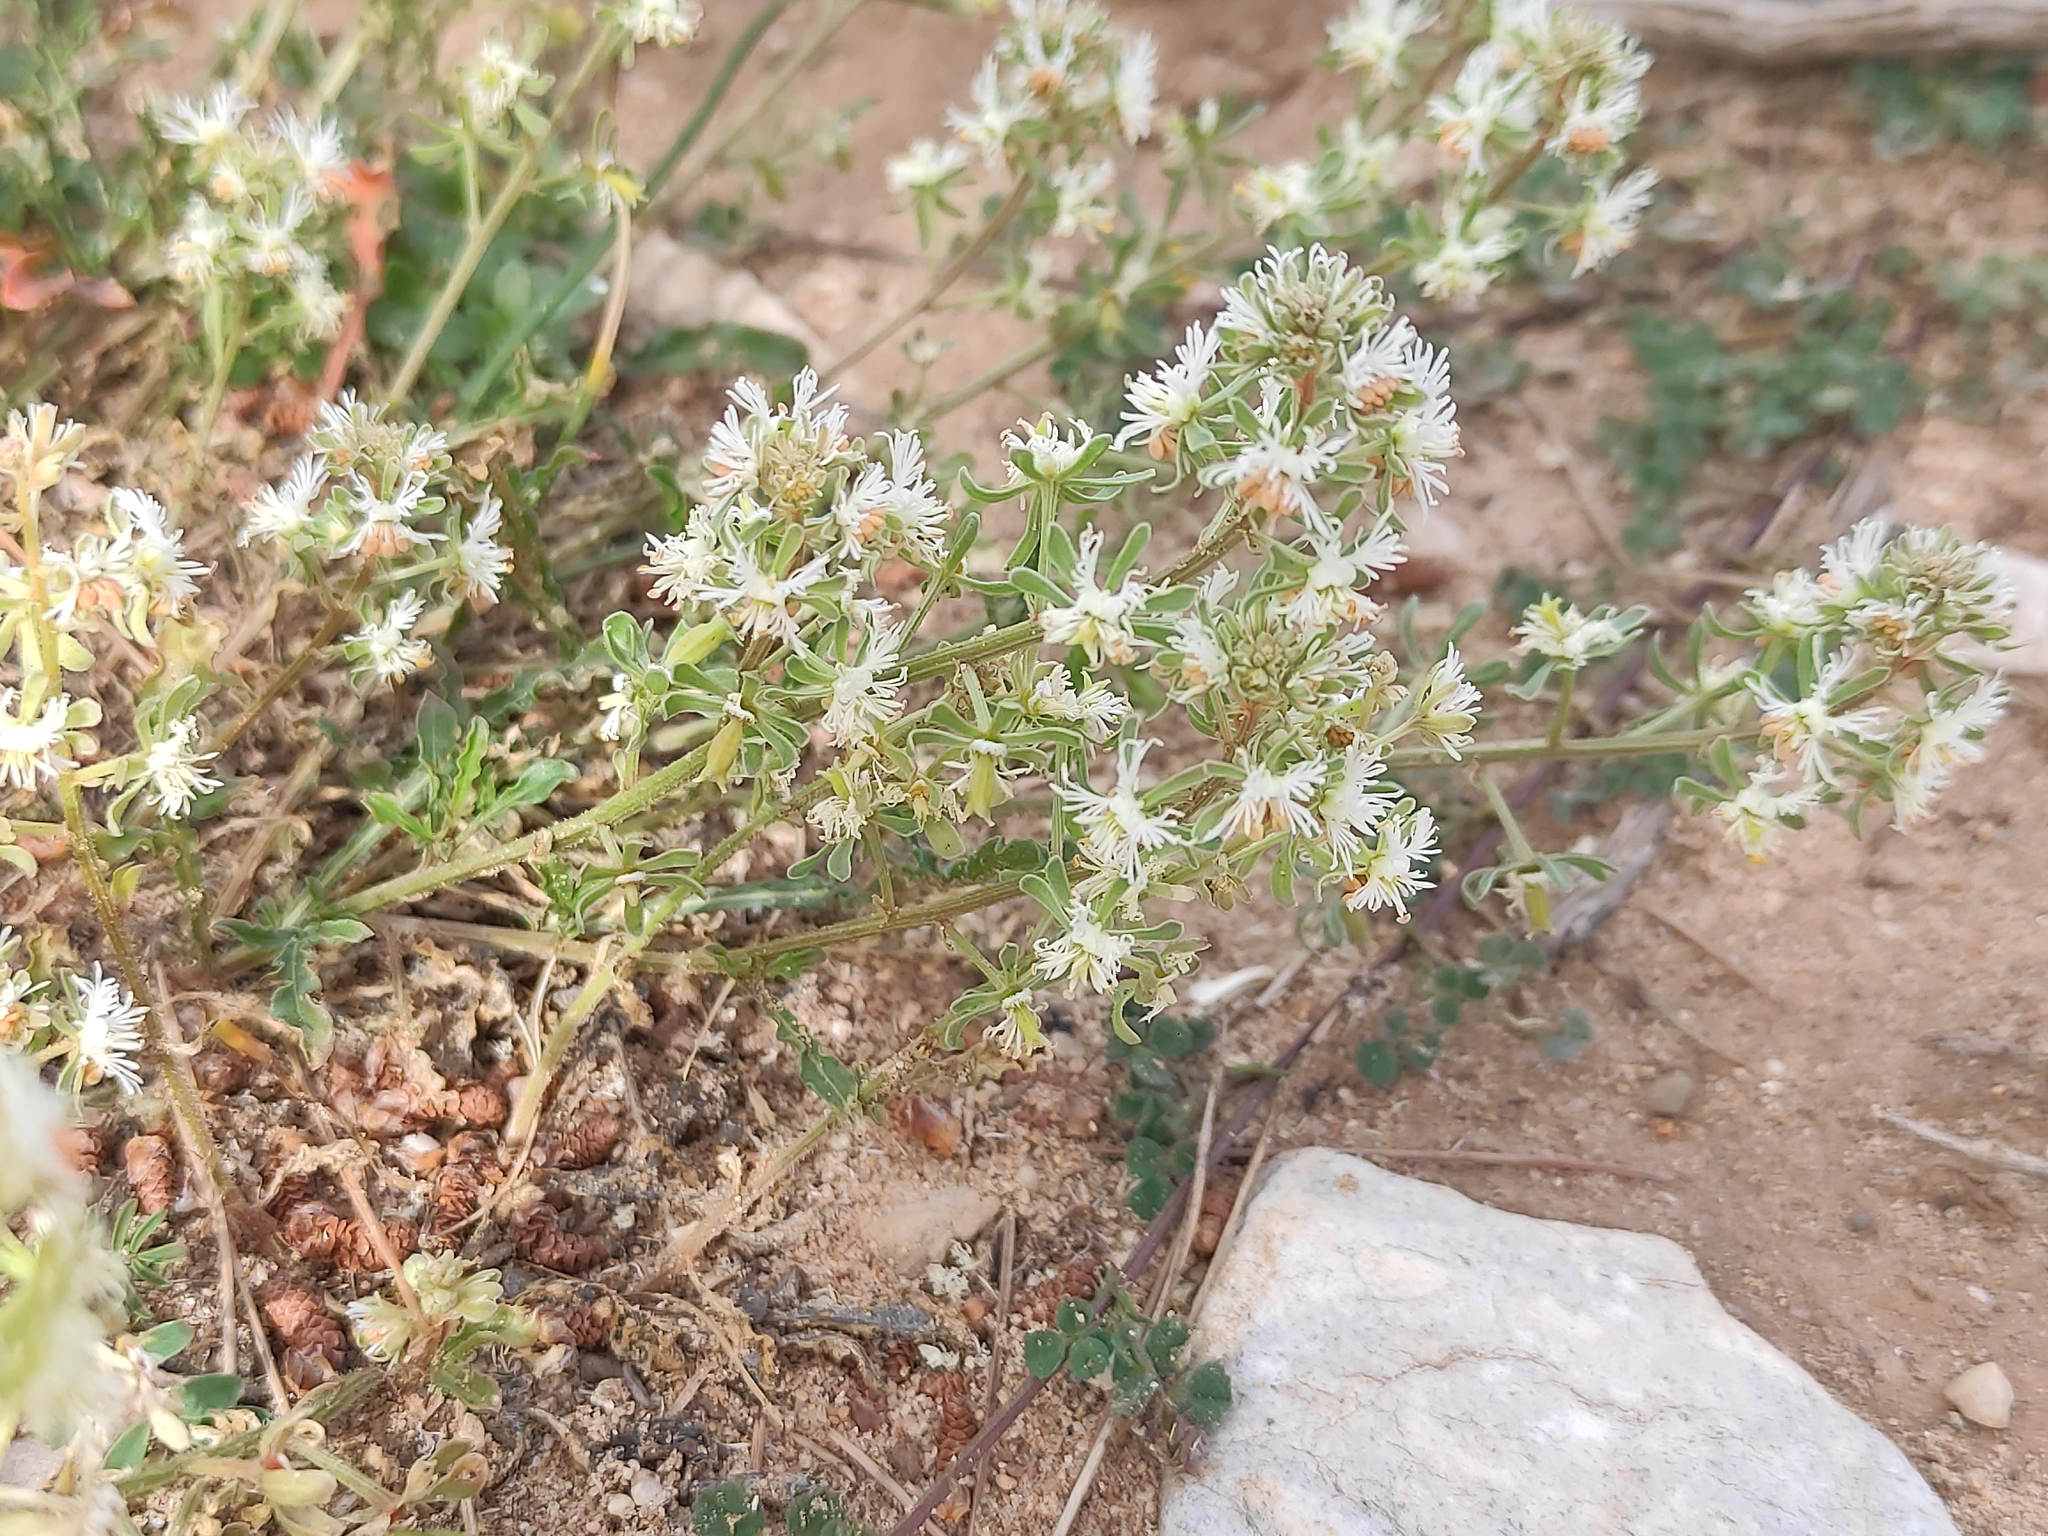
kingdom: Plantae
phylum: Tracheophyta
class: Magnoliopsida
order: Brassicales
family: Resedaceae
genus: Reseda
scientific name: Reseda phyteuma
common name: Corn mignonette
